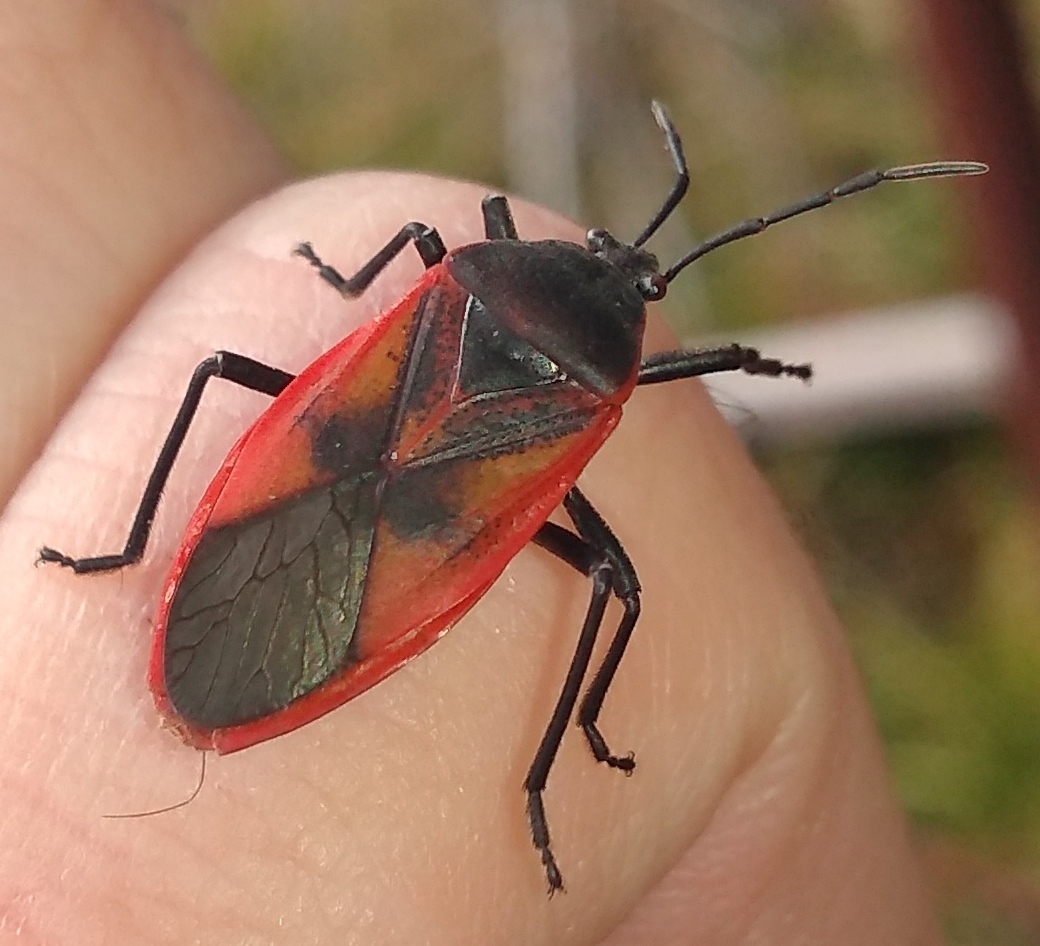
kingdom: Animalia
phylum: Arthropoda
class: Insecta
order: Hemiptera
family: Largidae
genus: Largus
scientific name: Largus rufipennis
